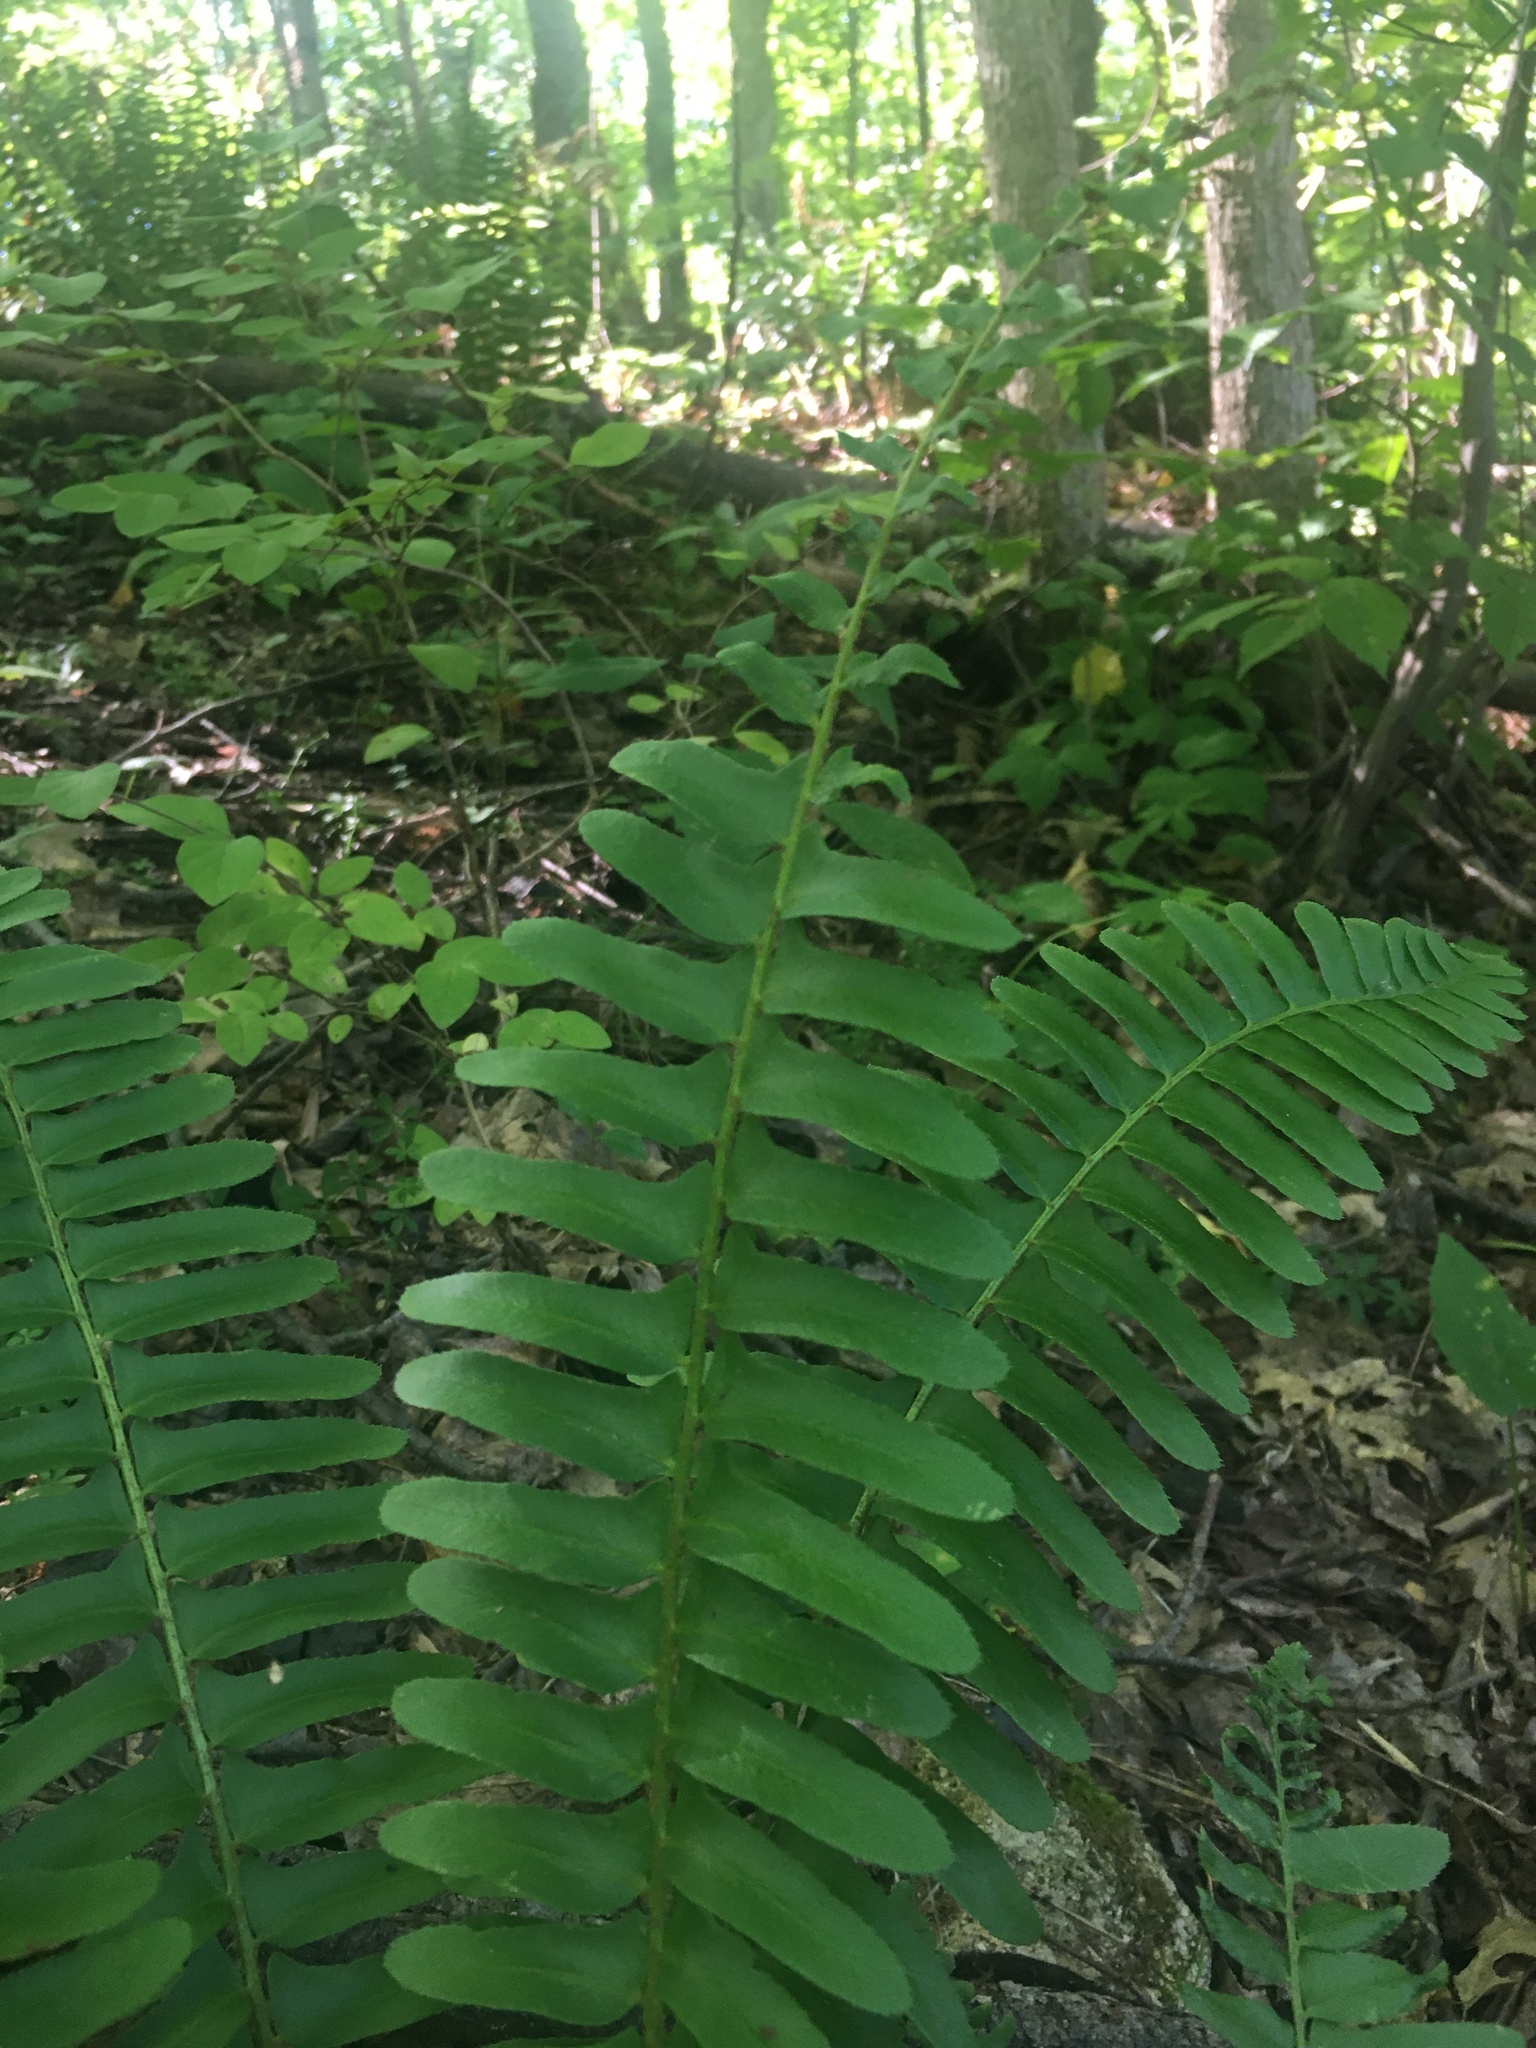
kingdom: Plantae
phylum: Tracheophyta
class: Polypodiopsida
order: Polypodiales
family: Dryopteridaceae
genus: Polystichum
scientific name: Polystichum acrostichoides
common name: Christmas fern
